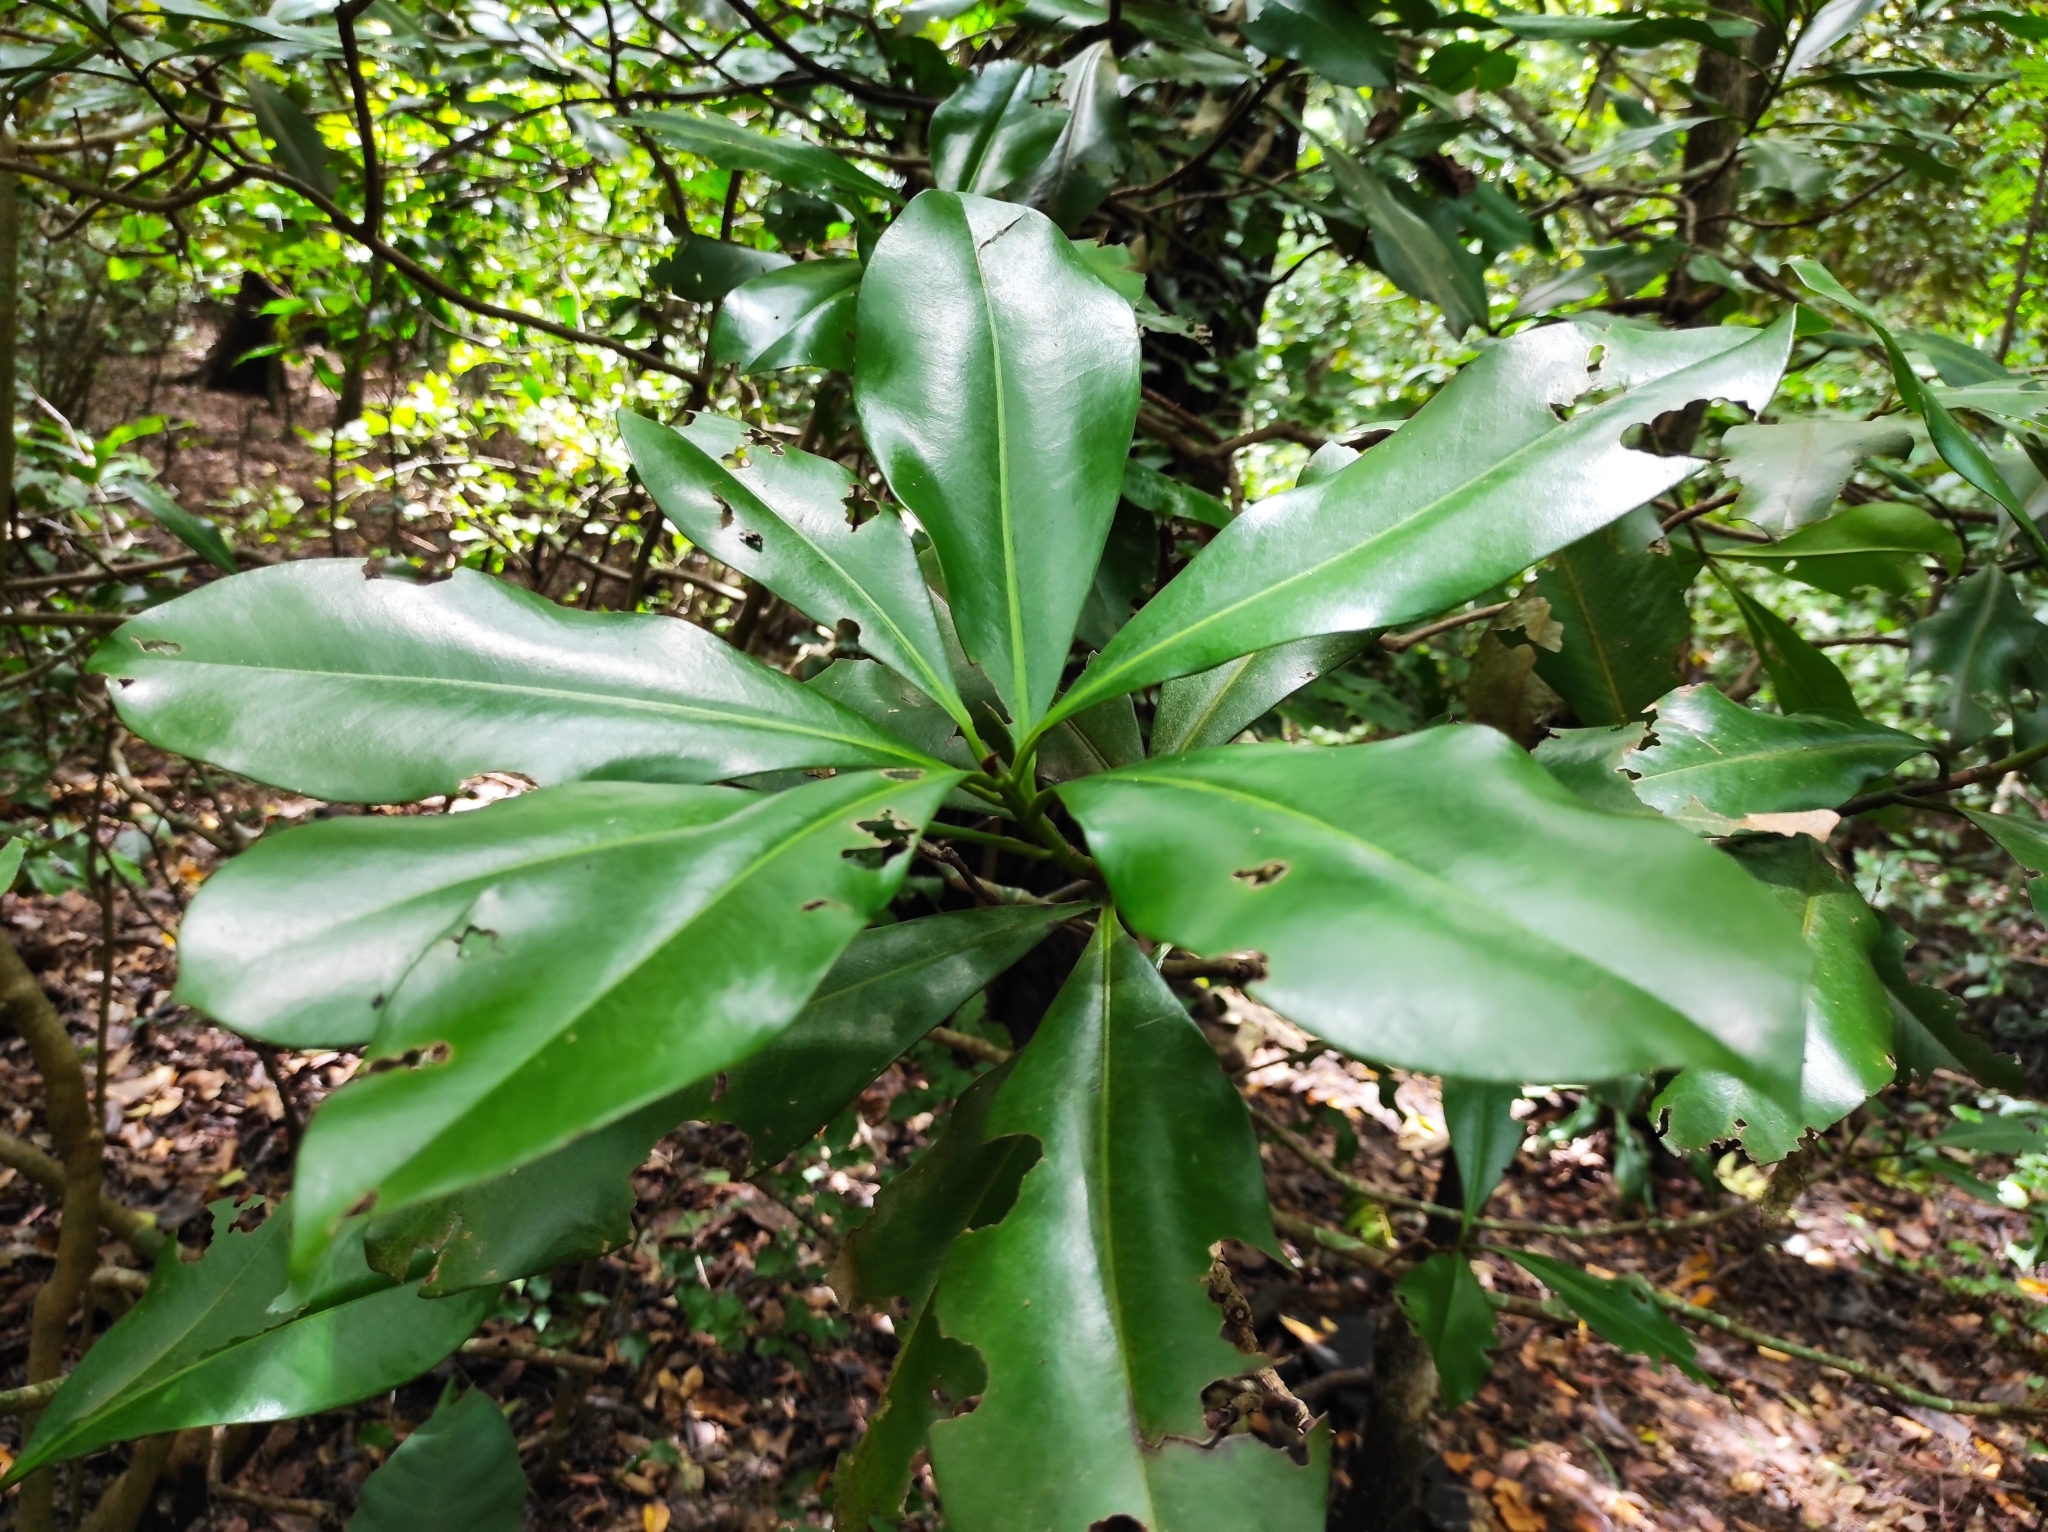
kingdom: Plantae
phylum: Tracheophyta
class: Magnoliopsida
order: Ericales
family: Primulaceae
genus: Ardisia
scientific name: Ardisia revoluta
